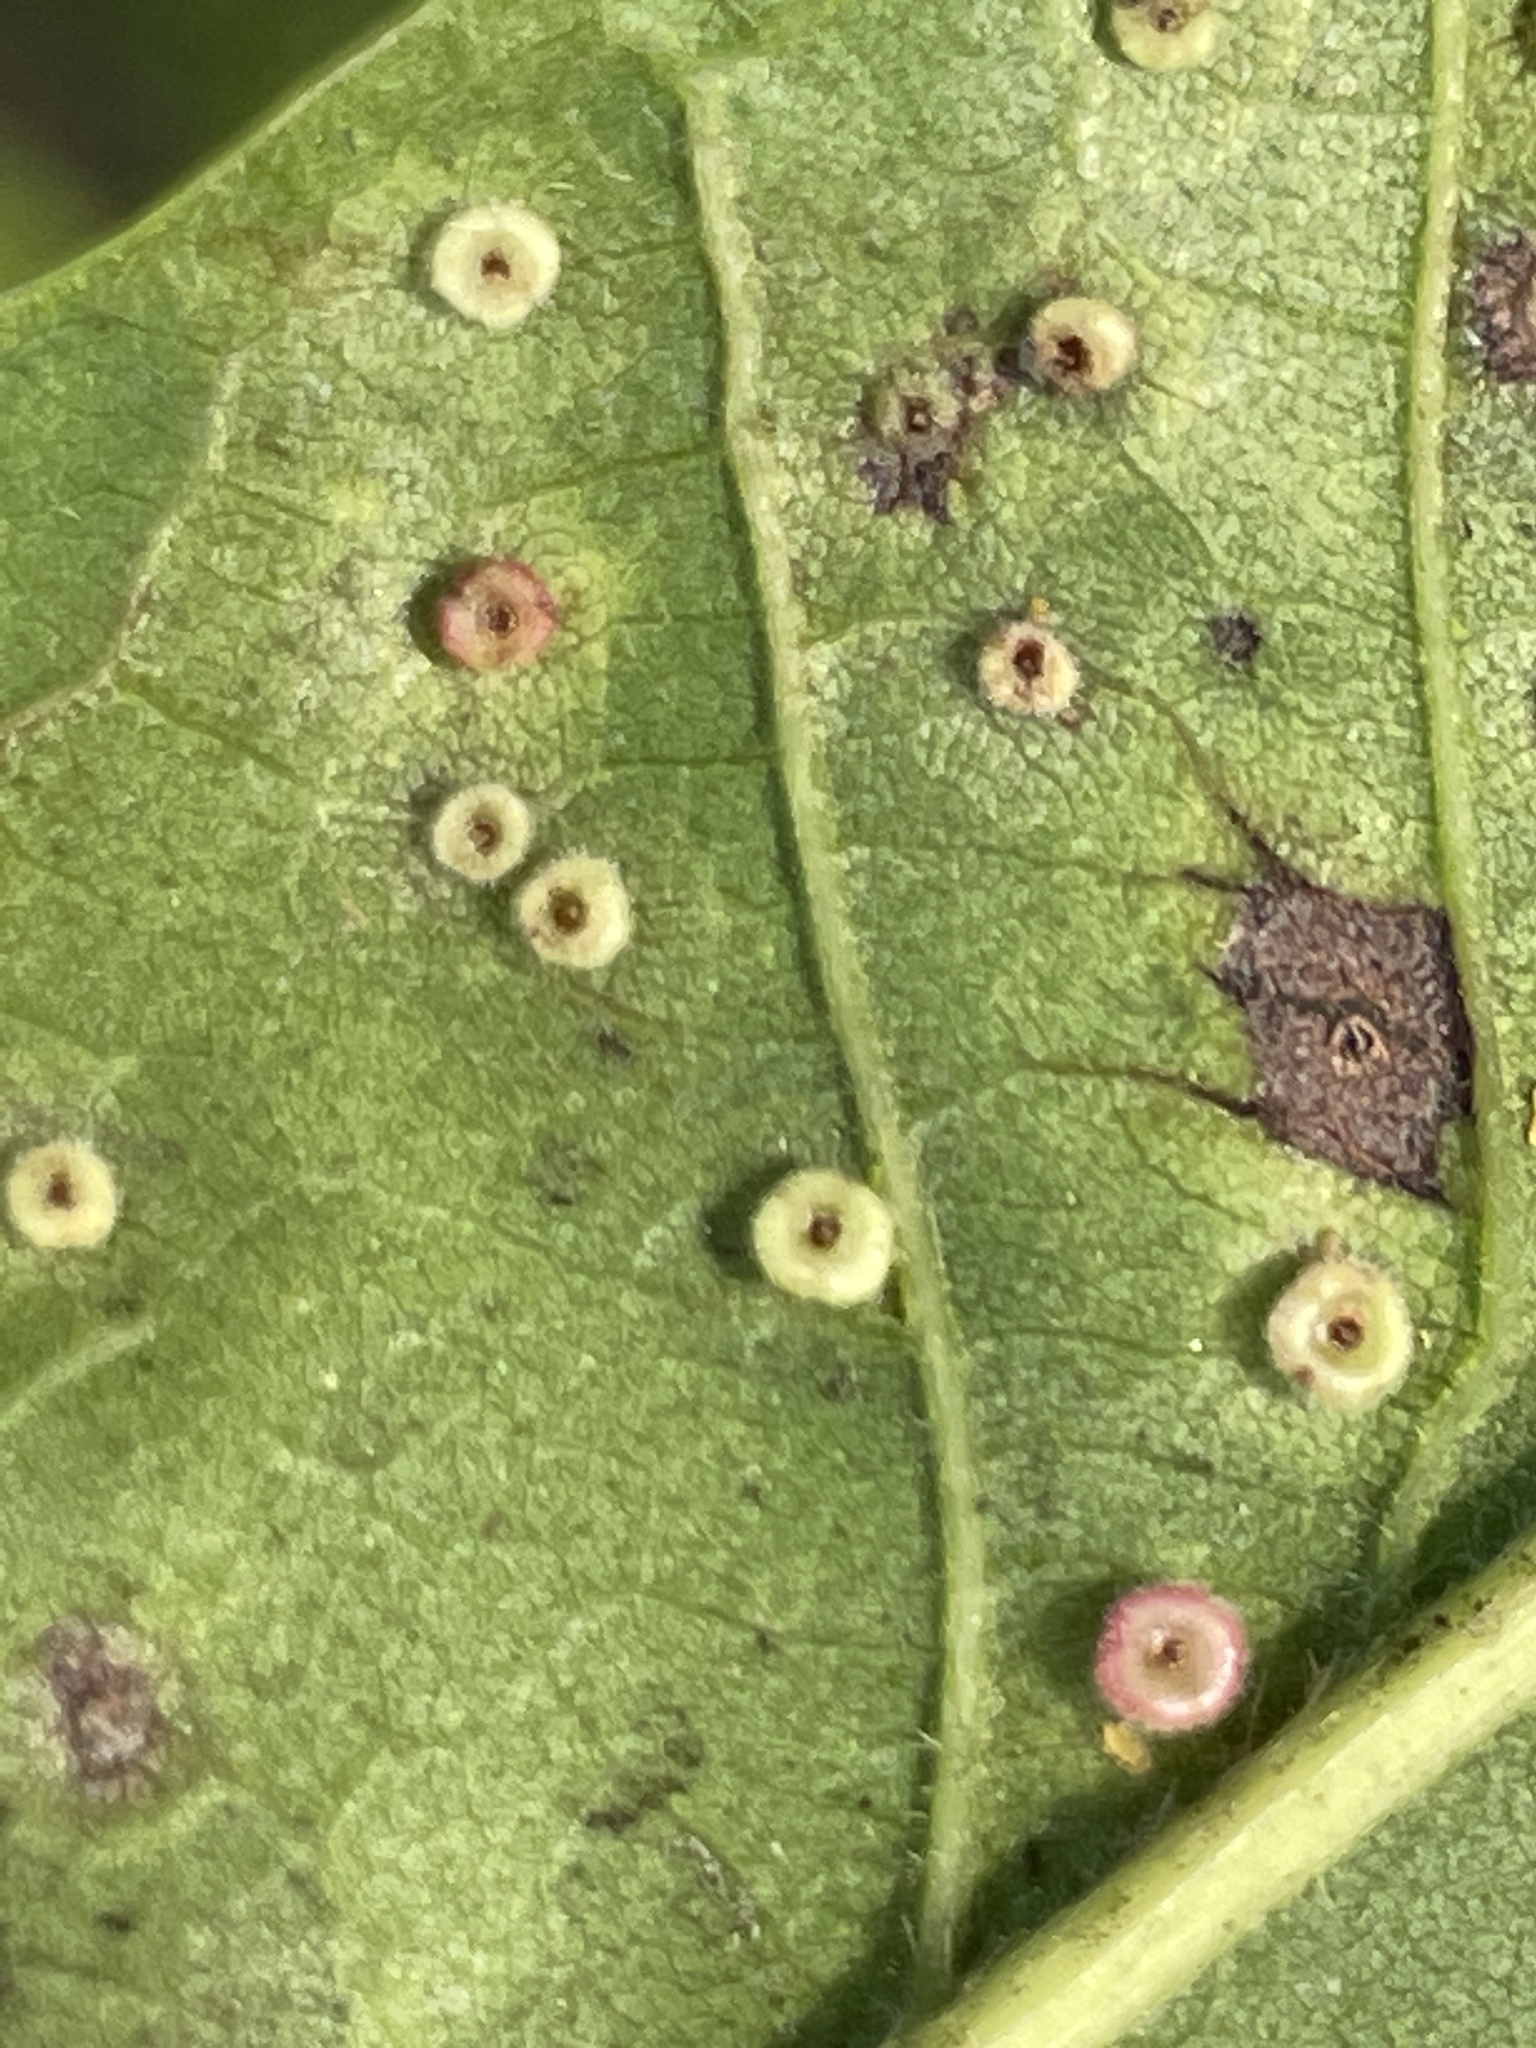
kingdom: Animalia
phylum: Arthropoda
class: Insecta
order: Hymenoptera
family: Cynipidae
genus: Neuroterus
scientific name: Neuroterus
